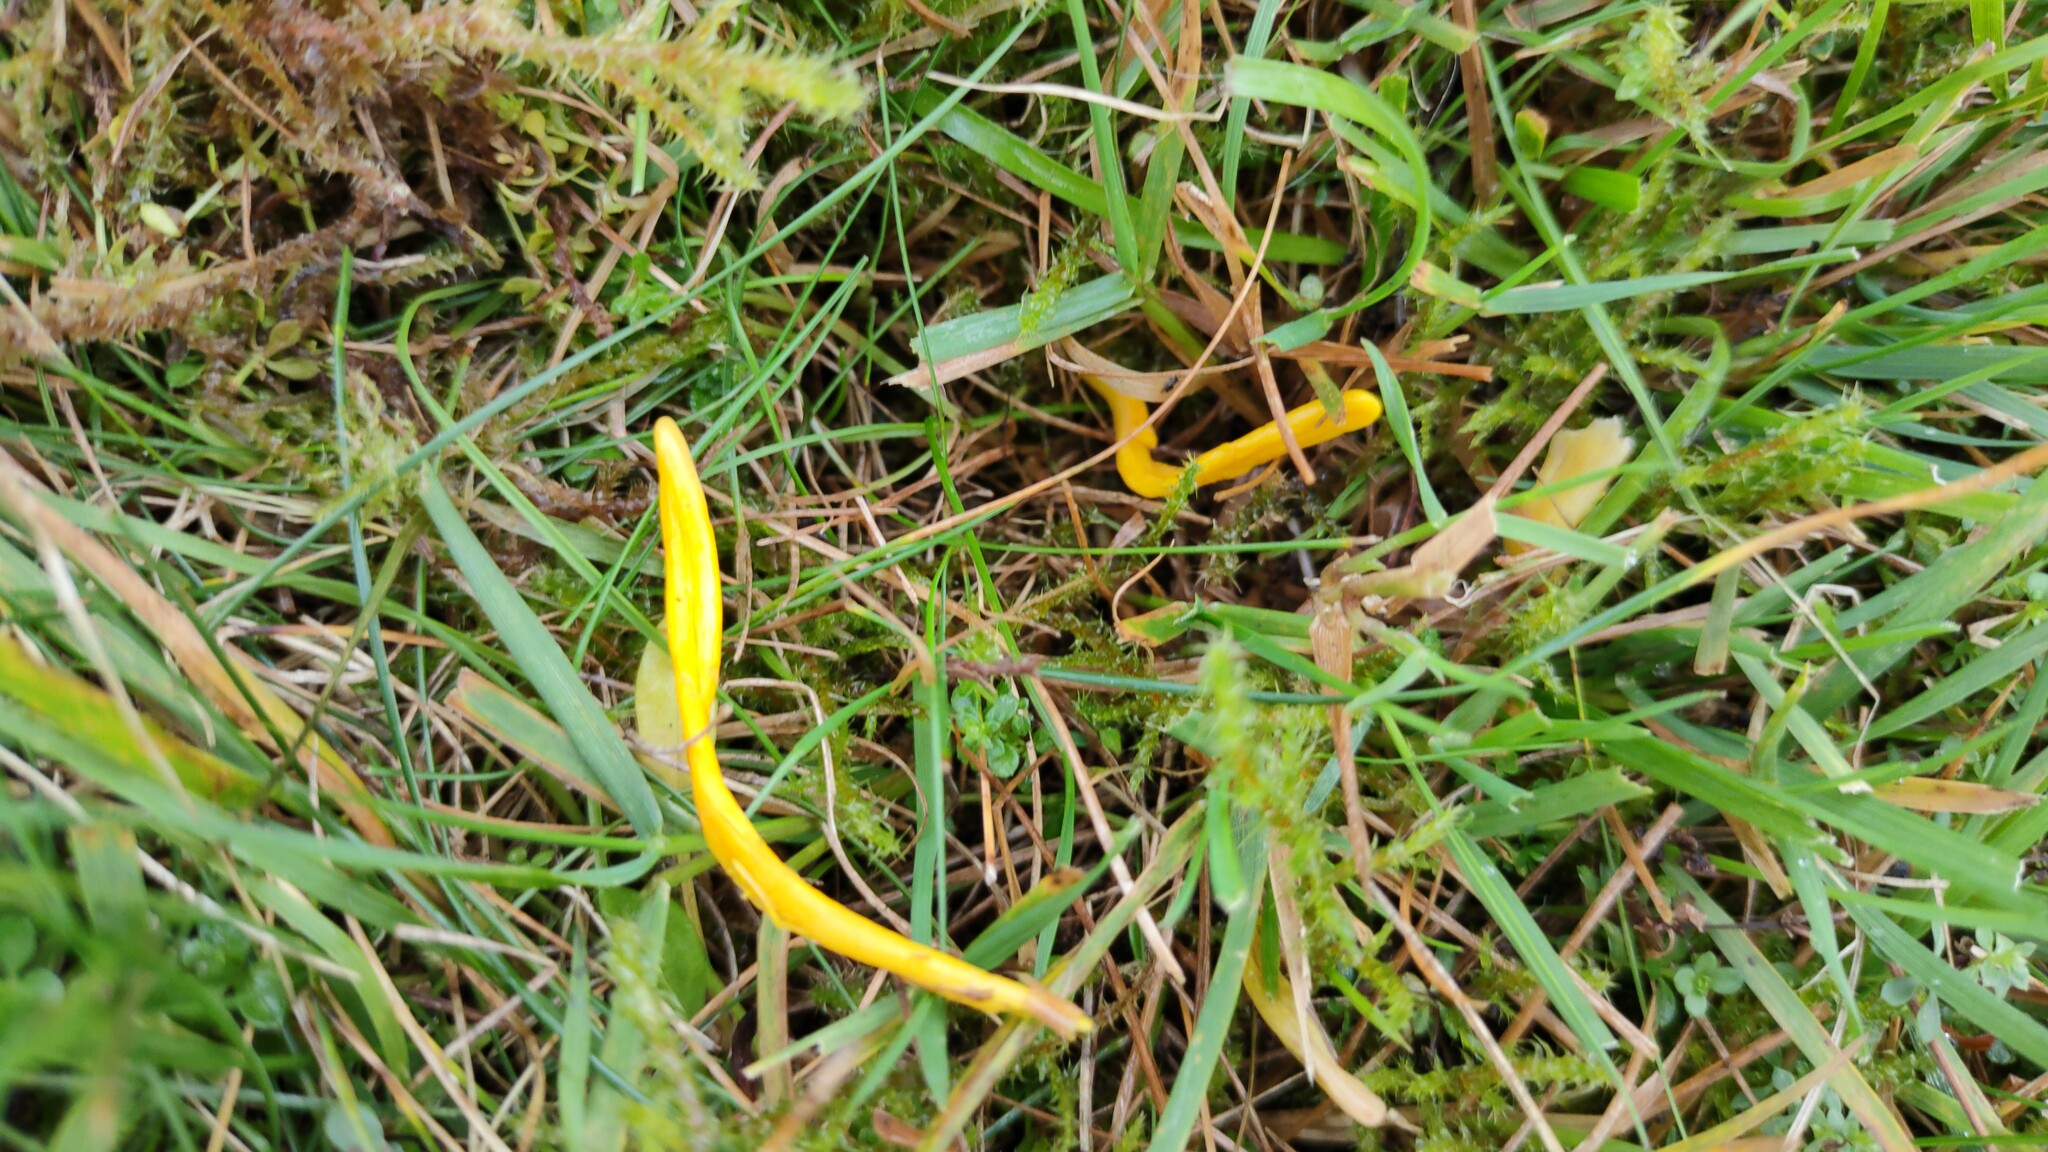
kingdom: Fungi
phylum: Basidiomycota
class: Agaricomycetes
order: Agaricales
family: Clavariaceae
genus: Clavulinopsis
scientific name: Clavulinopsis helvola
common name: Yellow club
